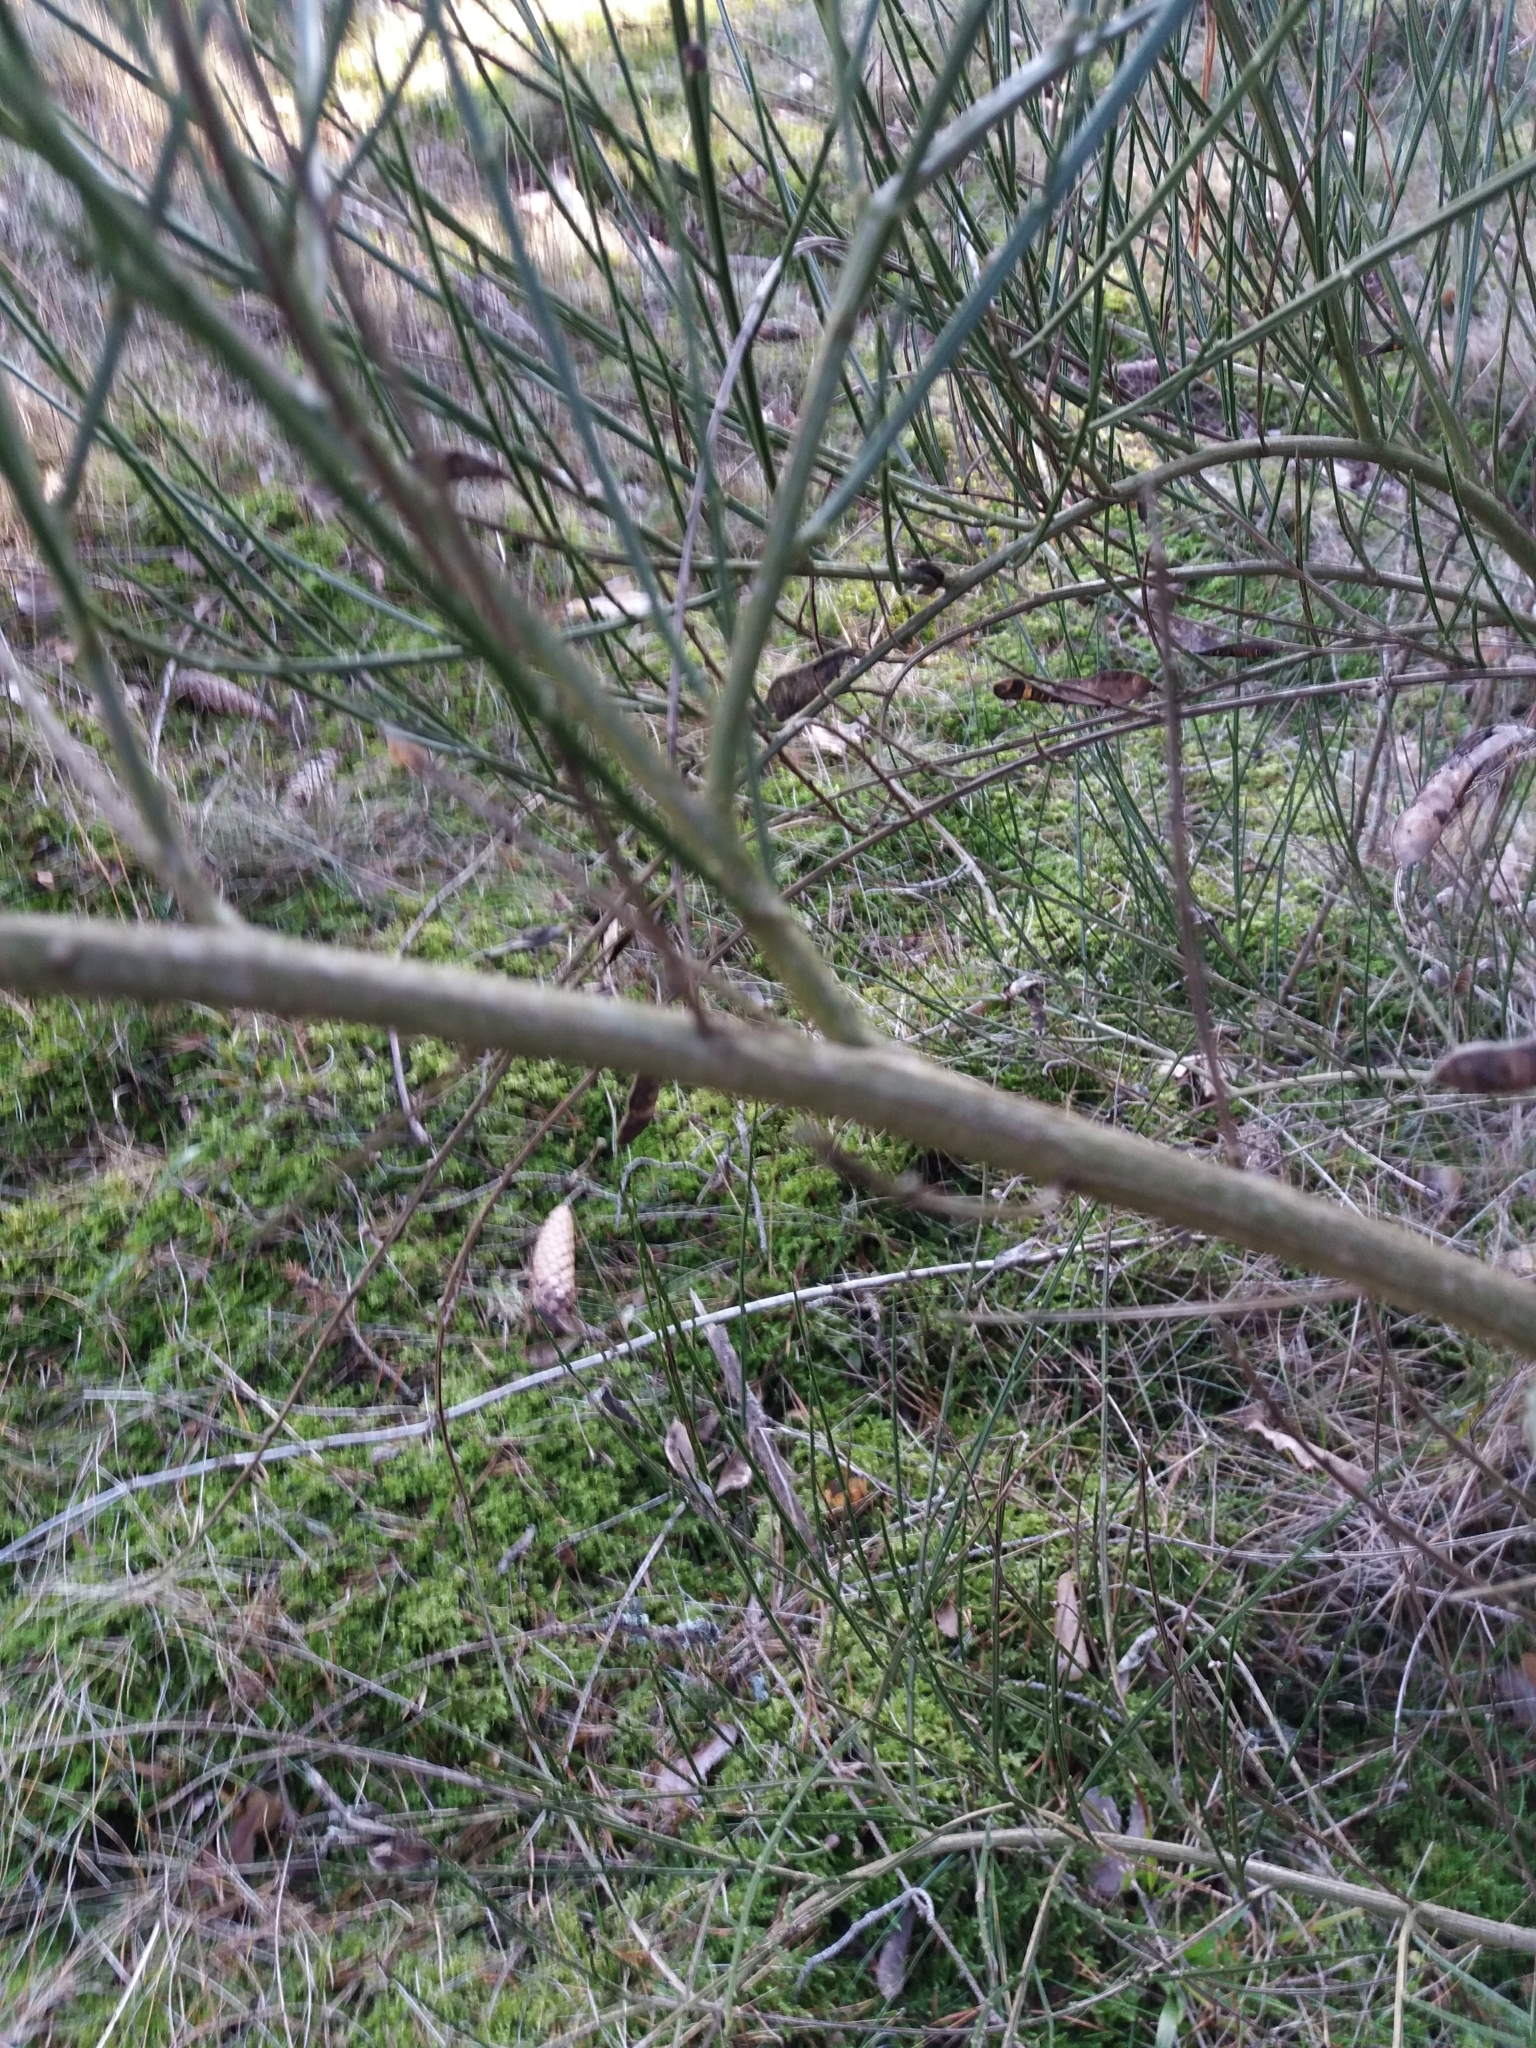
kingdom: Plantae
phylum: Tracheophyta
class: Magnoliopsida
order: Fabales
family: Fabaceae
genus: Cytisus
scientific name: Cytisus scoparius
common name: Scotch broom
